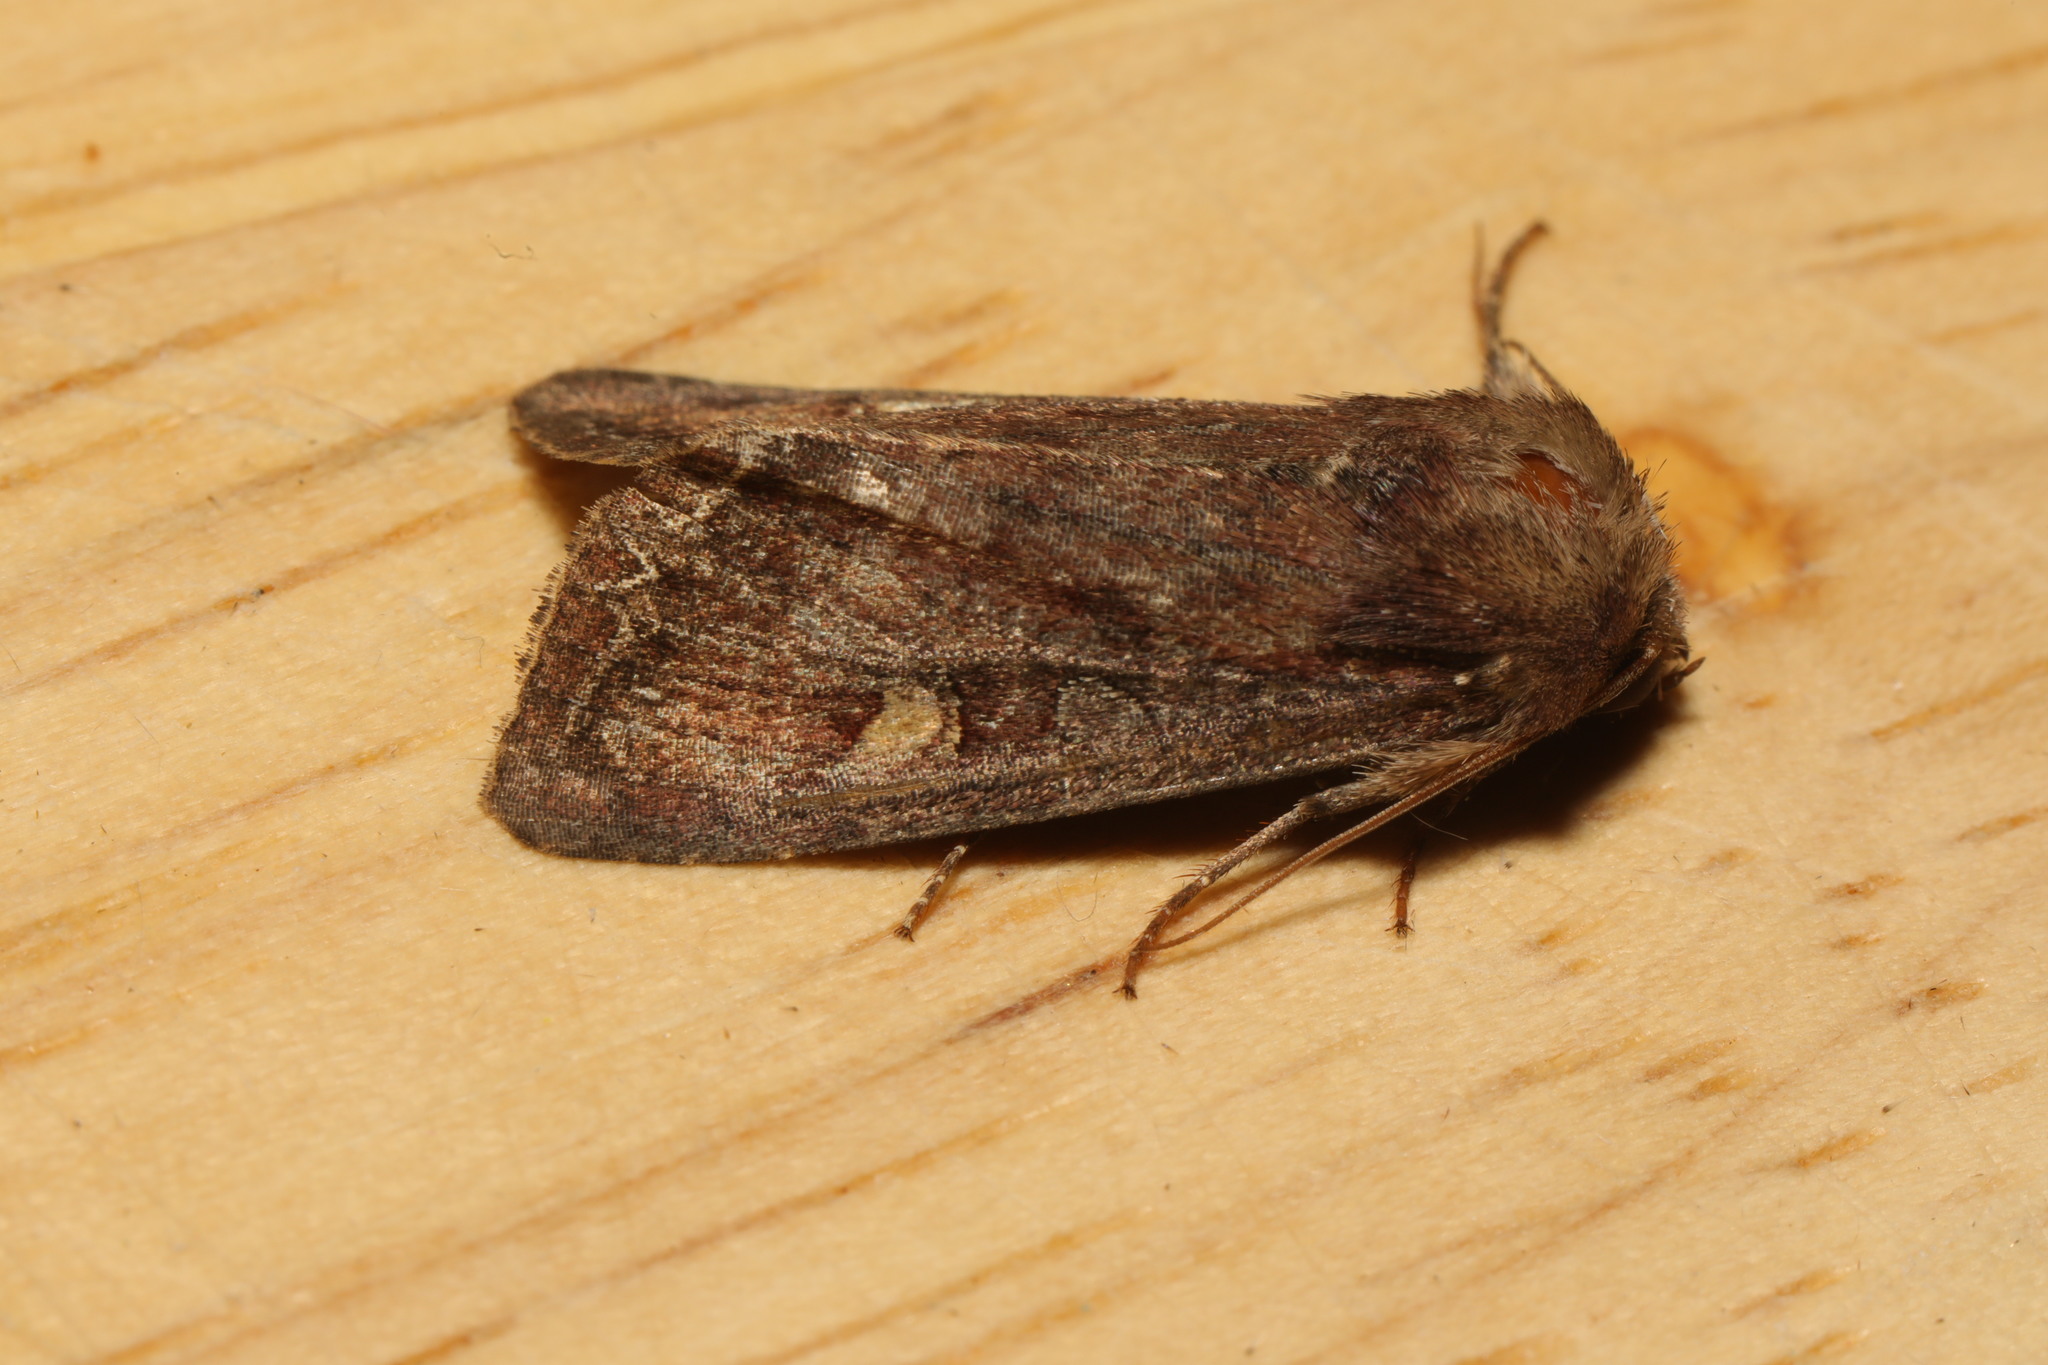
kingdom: Animalia
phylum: Arthropoda
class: Insecta
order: Lepidoptera
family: Noctuidae
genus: Lacanobia
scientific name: Lacanobia oleracea
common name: Bright-line brown-eye
